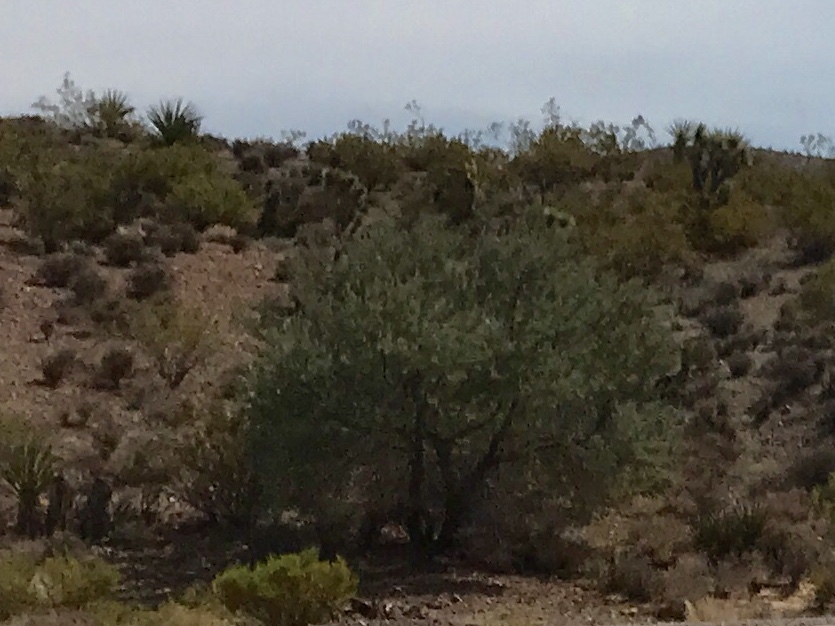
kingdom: Plantae
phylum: Tracheophyta
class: Magnoliopsida
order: Fabales
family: Fabaceae
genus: Senegalia
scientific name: Senegalia greggii
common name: Texas-mimosa
